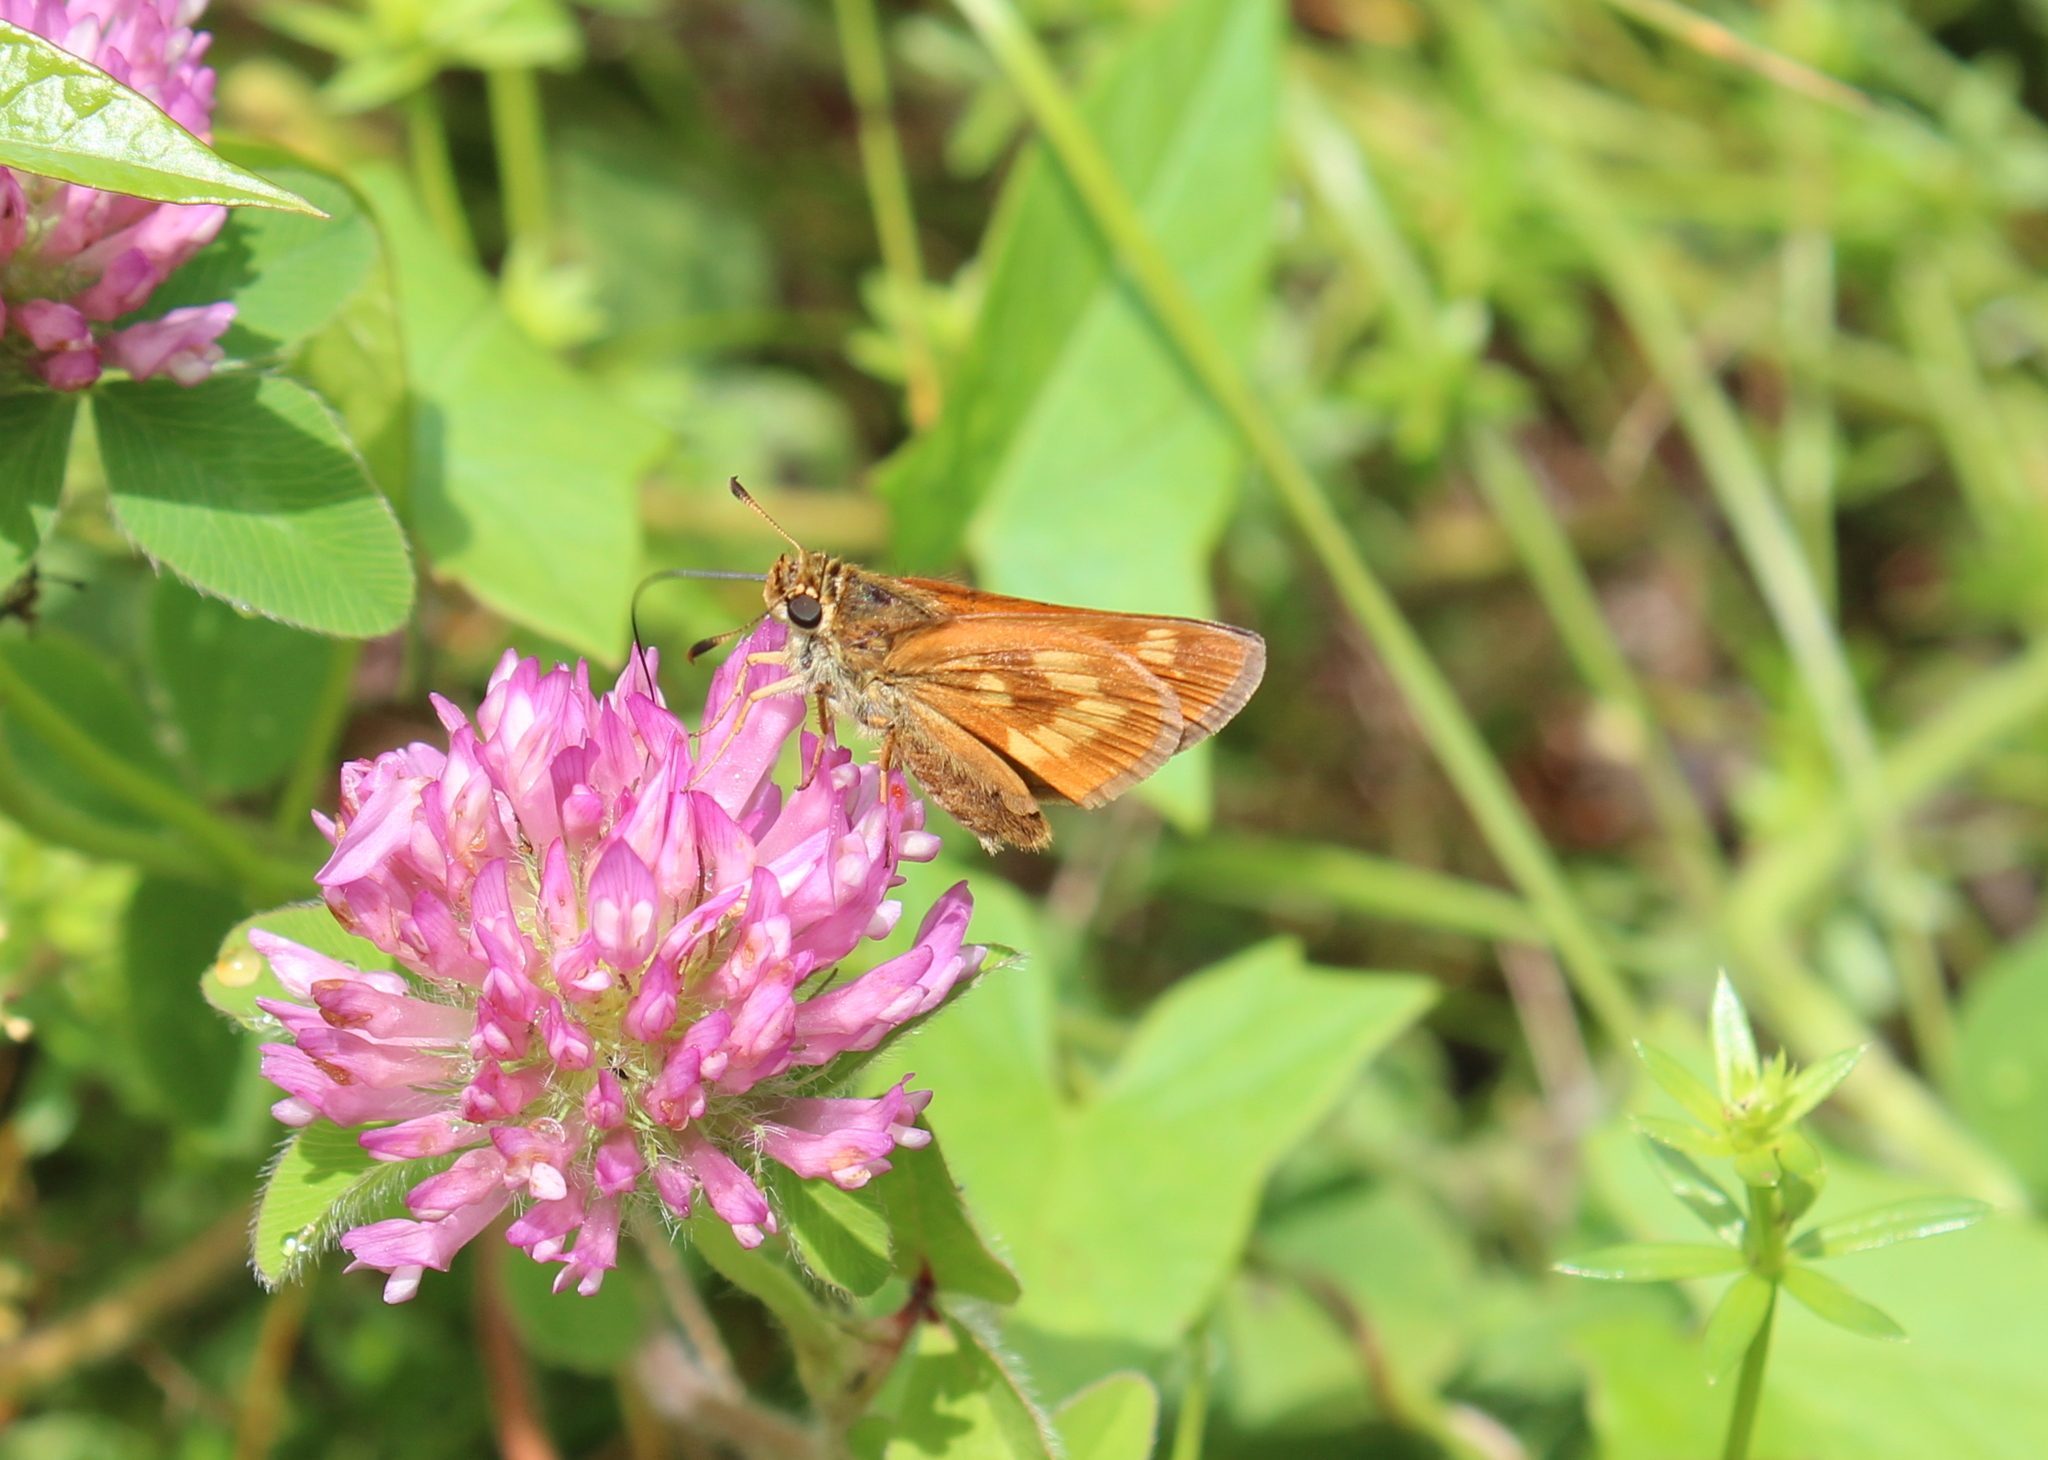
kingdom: Animalia
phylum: Arthropoda
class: Insecta
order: Lepidoptera
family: Hesperiidae
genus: Polites
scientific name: Polites mystic
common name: Long dash
